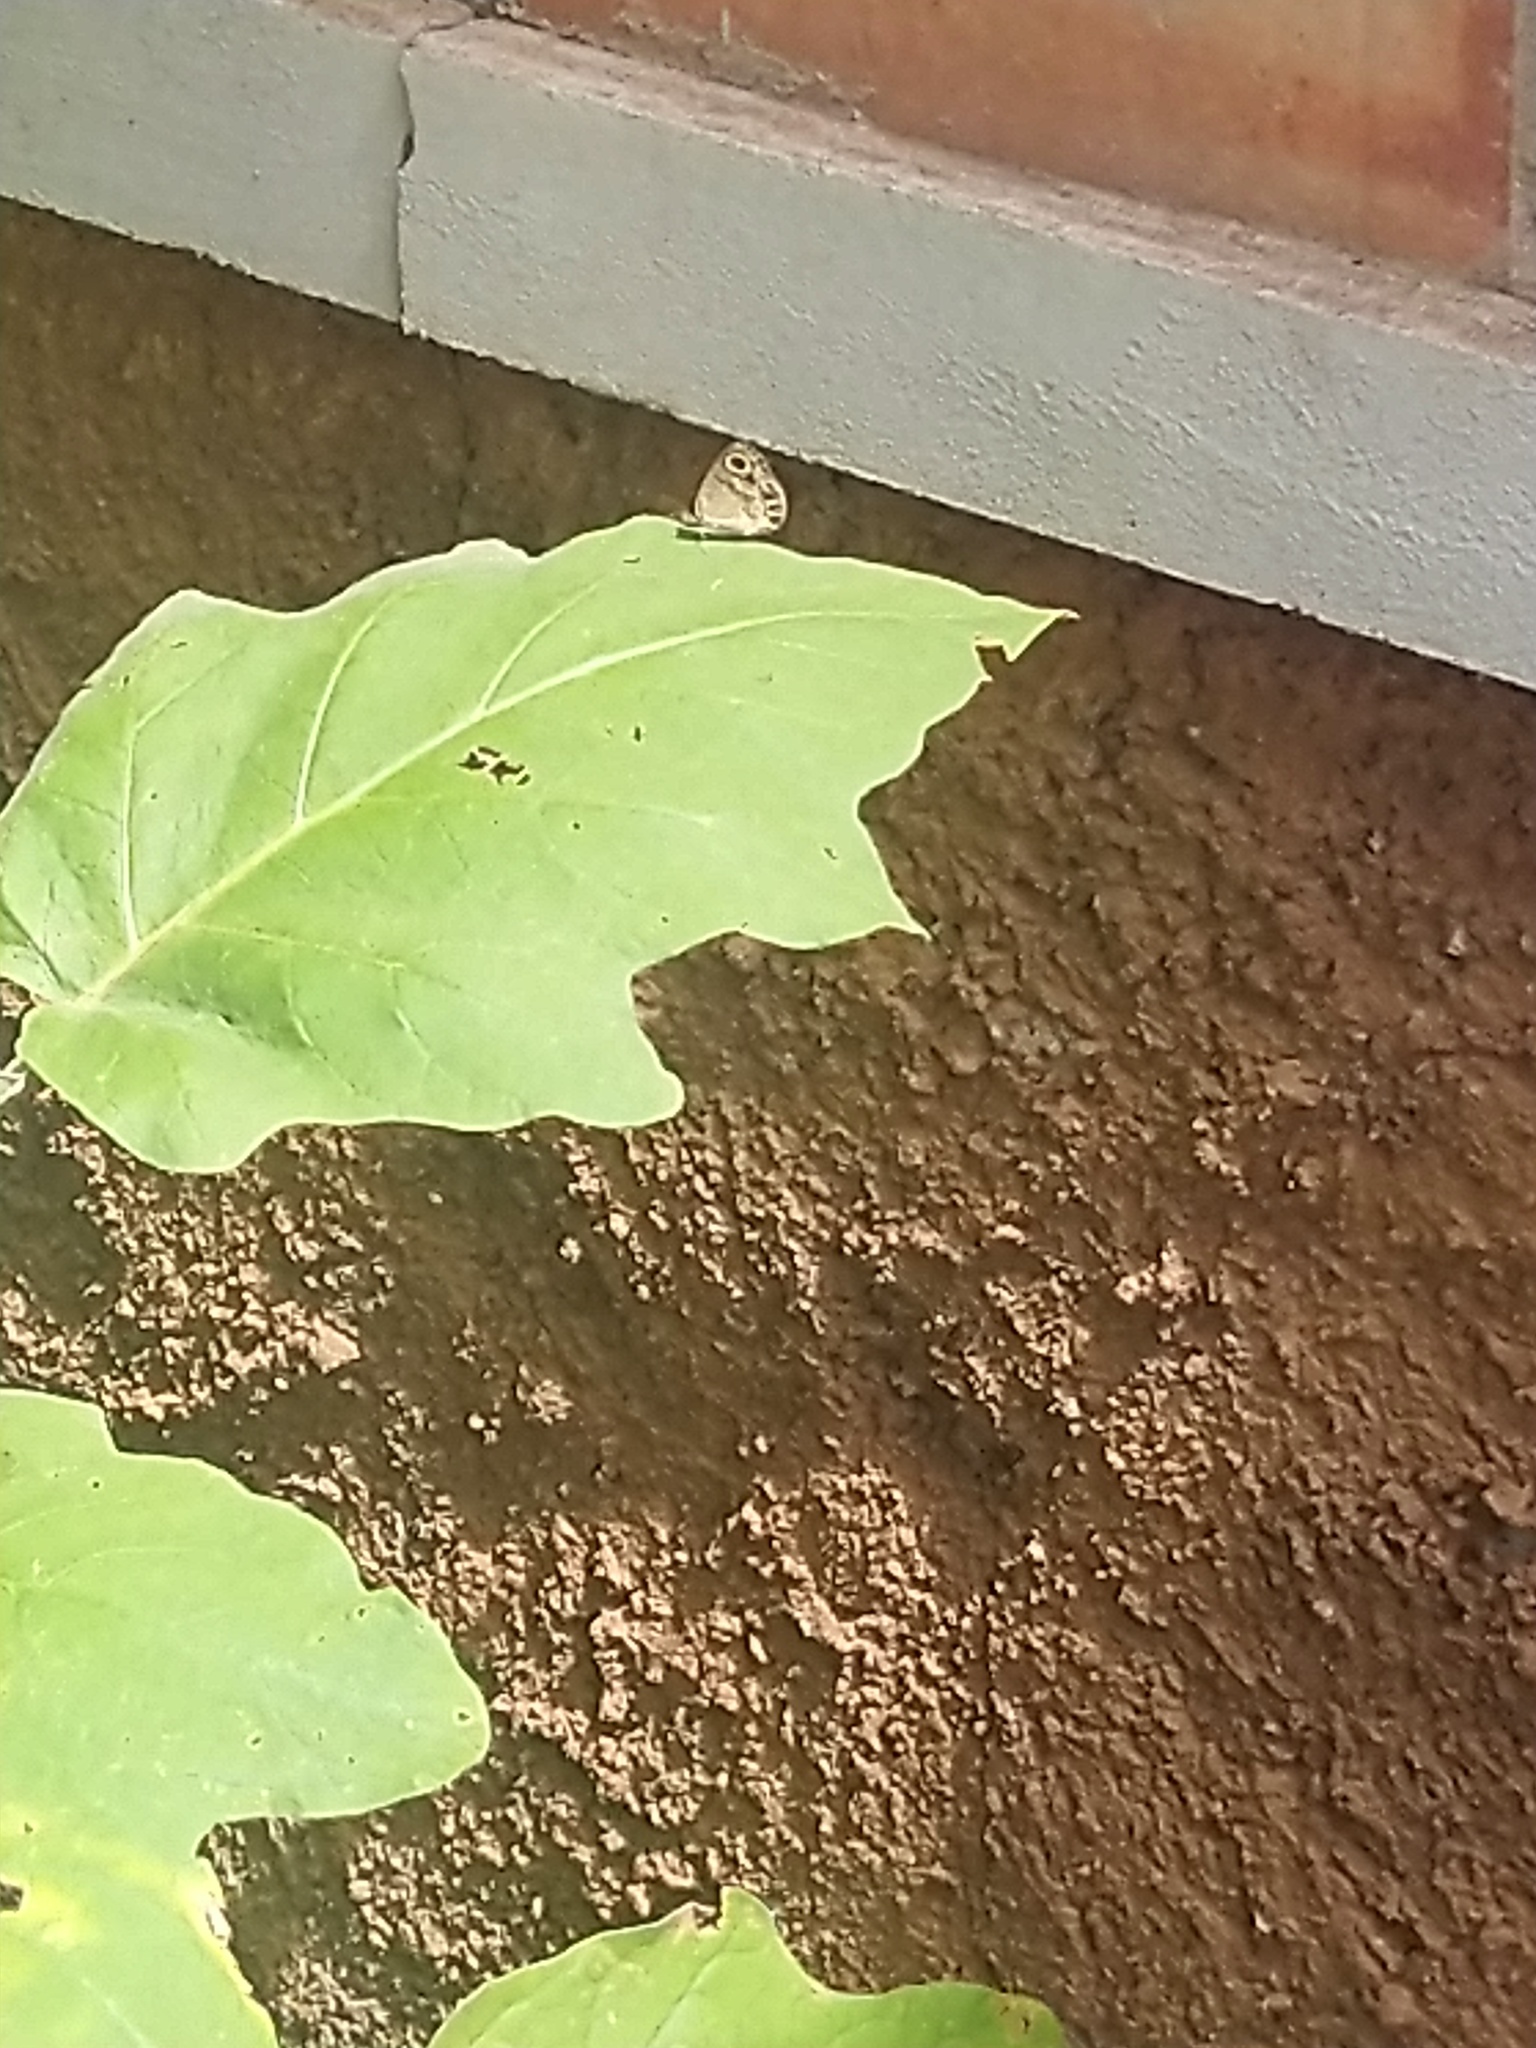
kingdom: Animalia
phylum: Arthropoda
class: Insecta
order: Lepidoptera
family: Nymphalidae
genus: Ypthima
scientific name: Ypthima huebneri
